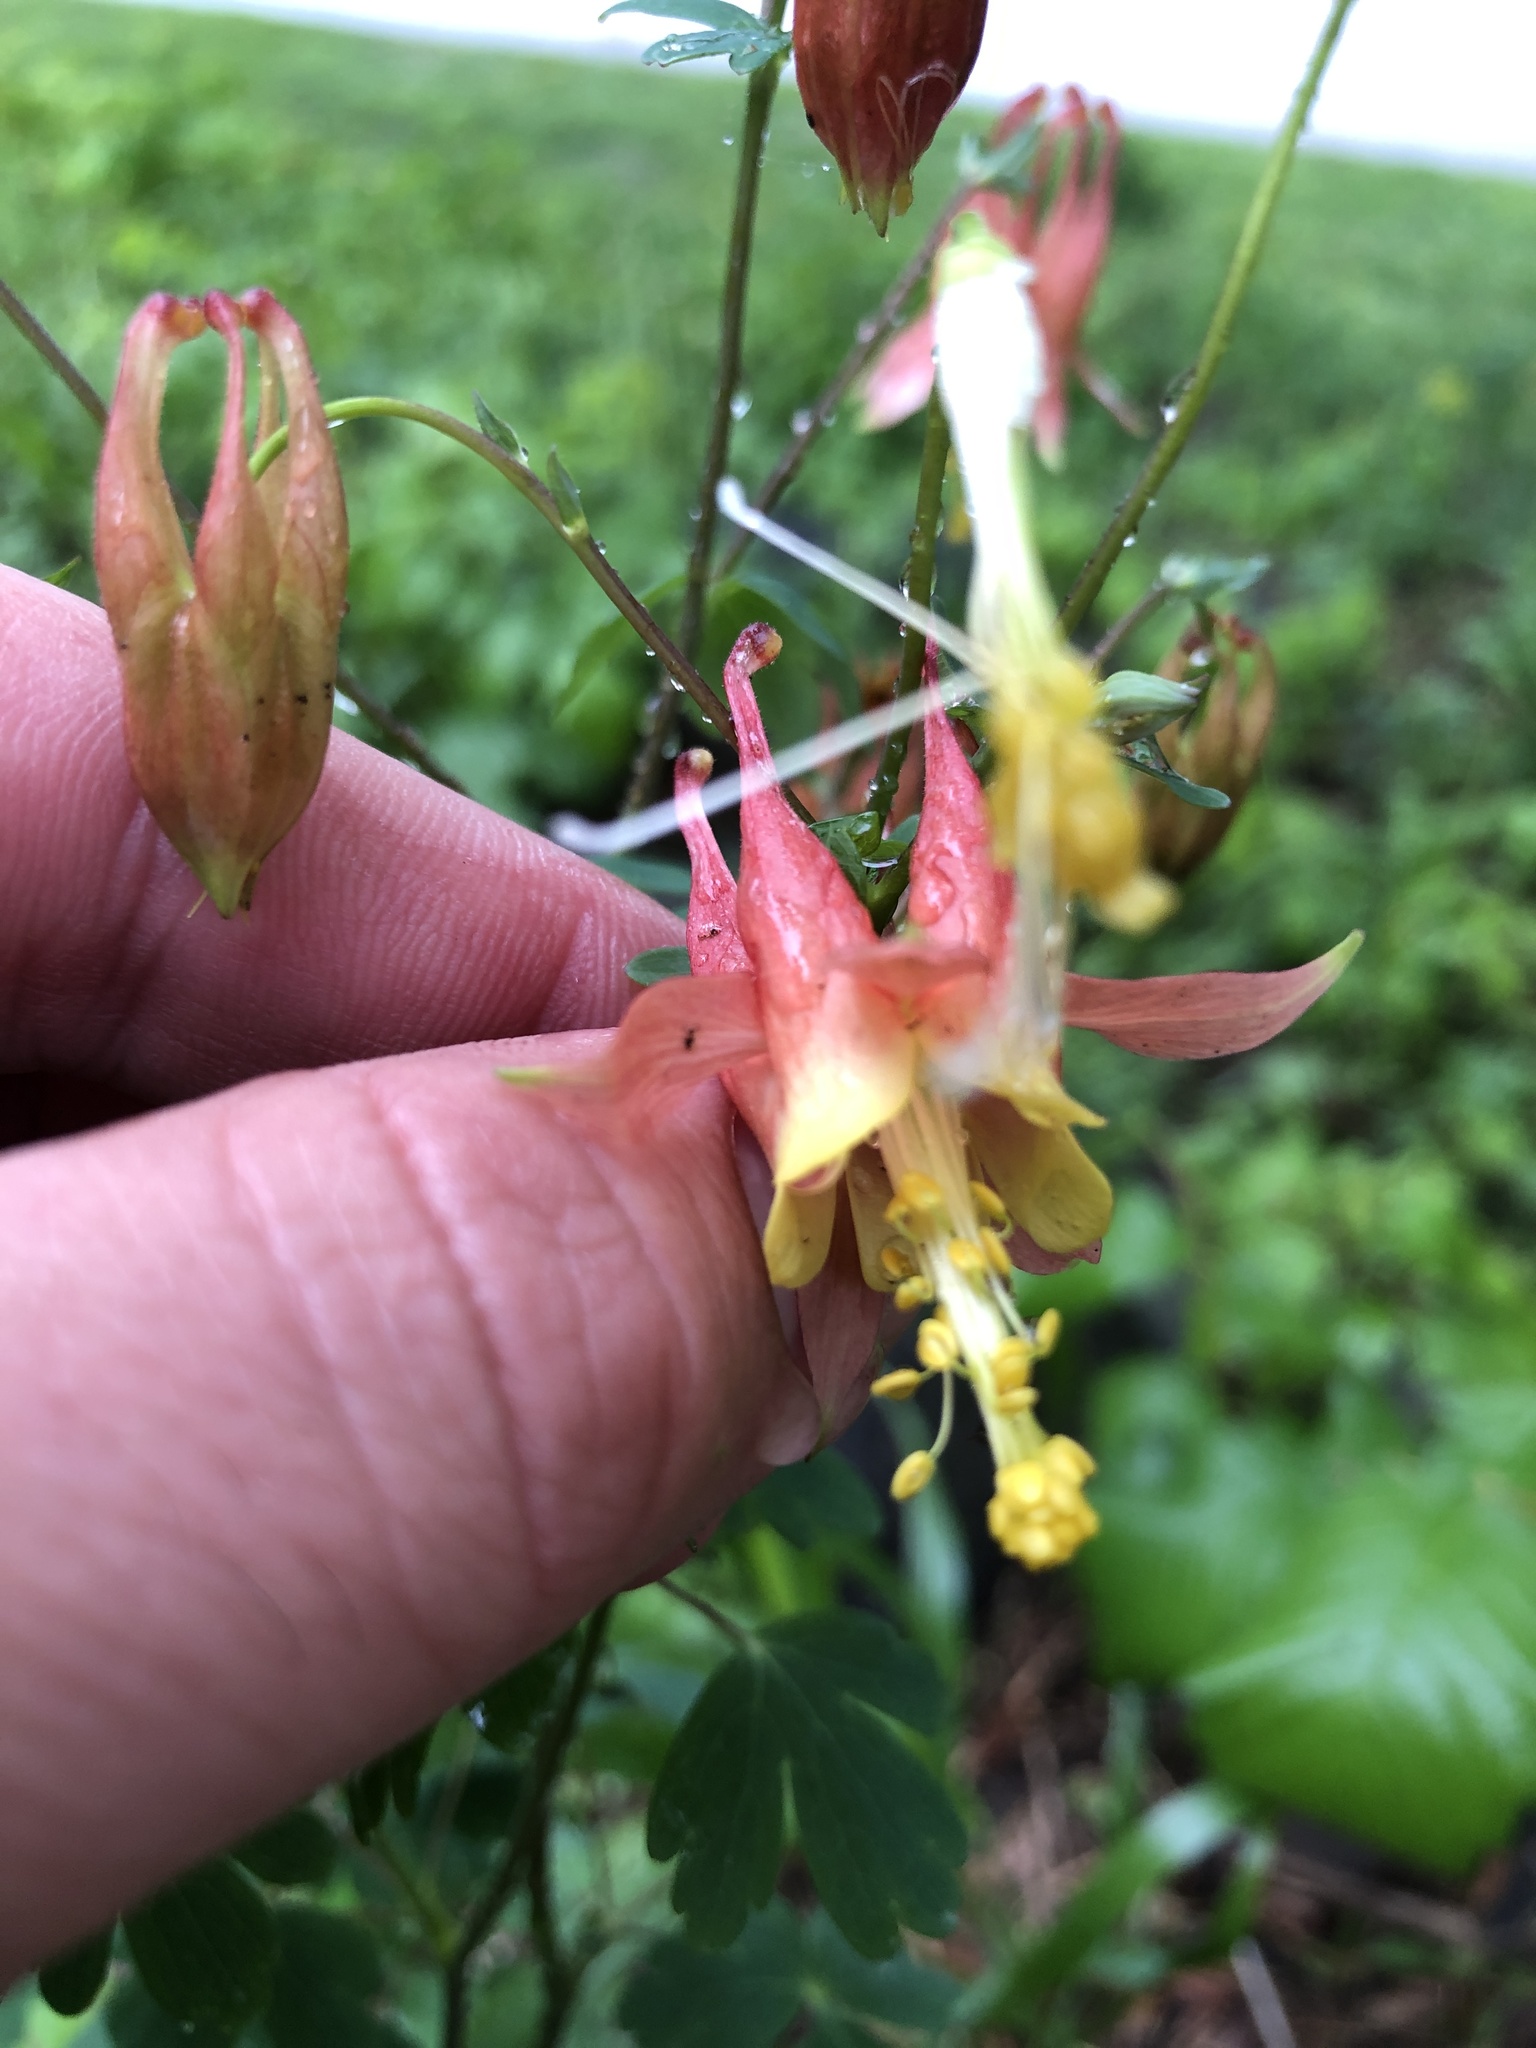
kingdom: Plantae
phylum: Tracheophyta
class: Magnoliopsida
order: Ranunculales
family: Ranunculaceae
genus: Aquilegia
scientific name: Aquilegia canadensis
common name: American columbine
